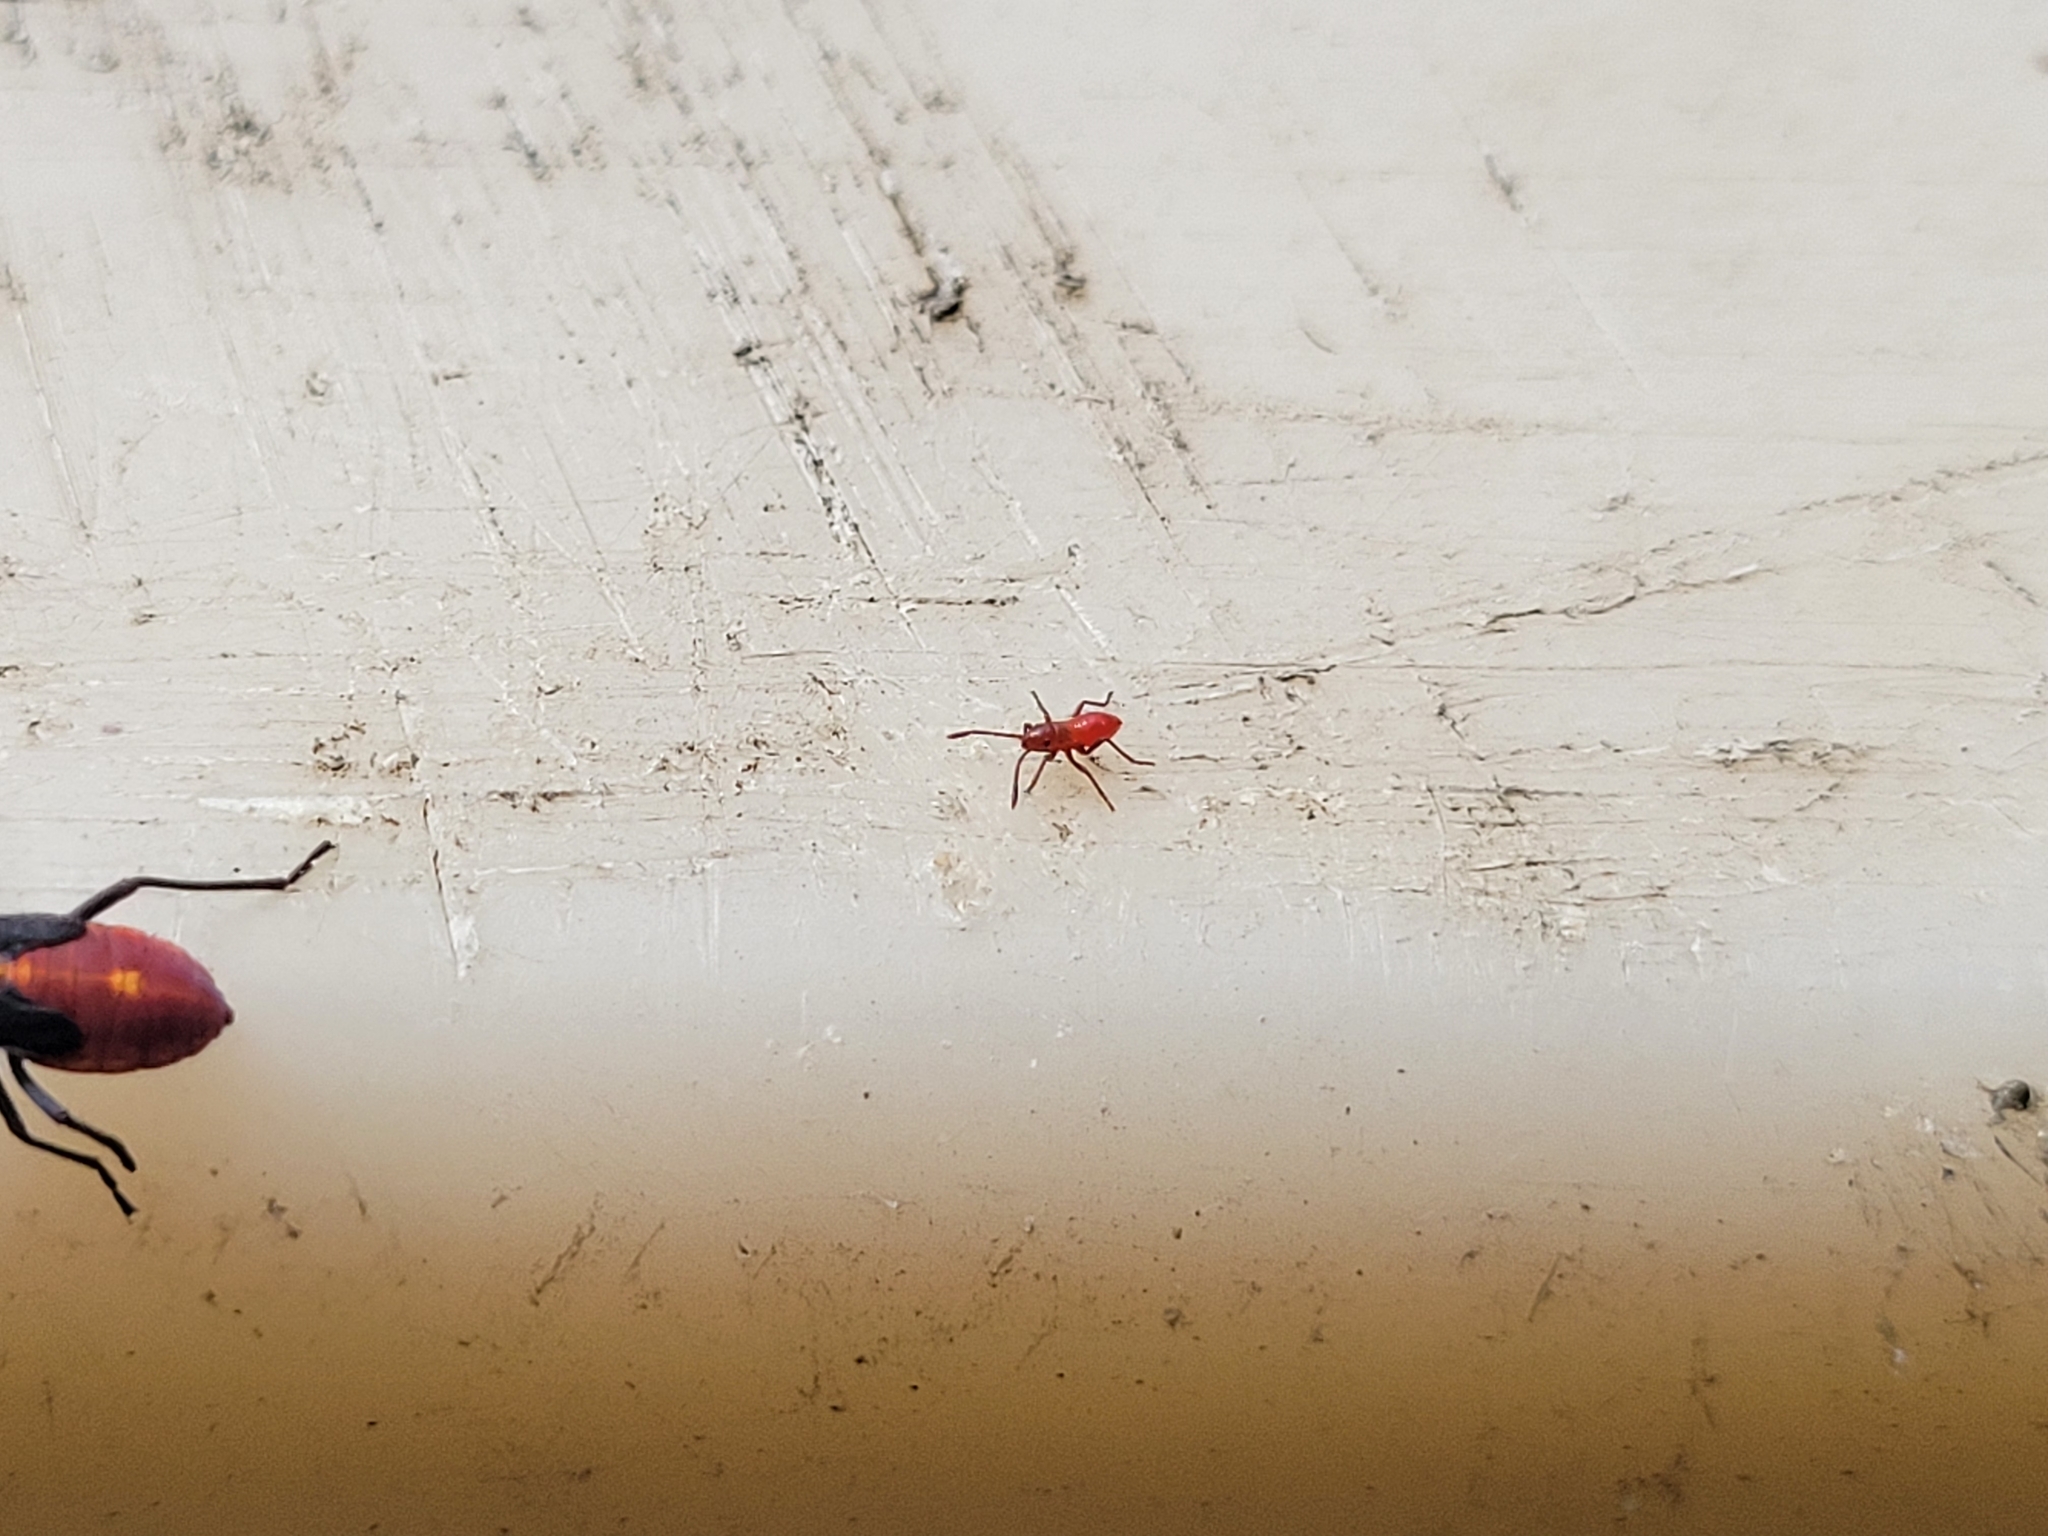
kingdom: Animalia
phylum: Arthropoda
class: Insecta
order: Hemiptera
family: Rhopalidae
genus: Boisea
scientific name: Boisea trivittata
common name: Boxelder bug
